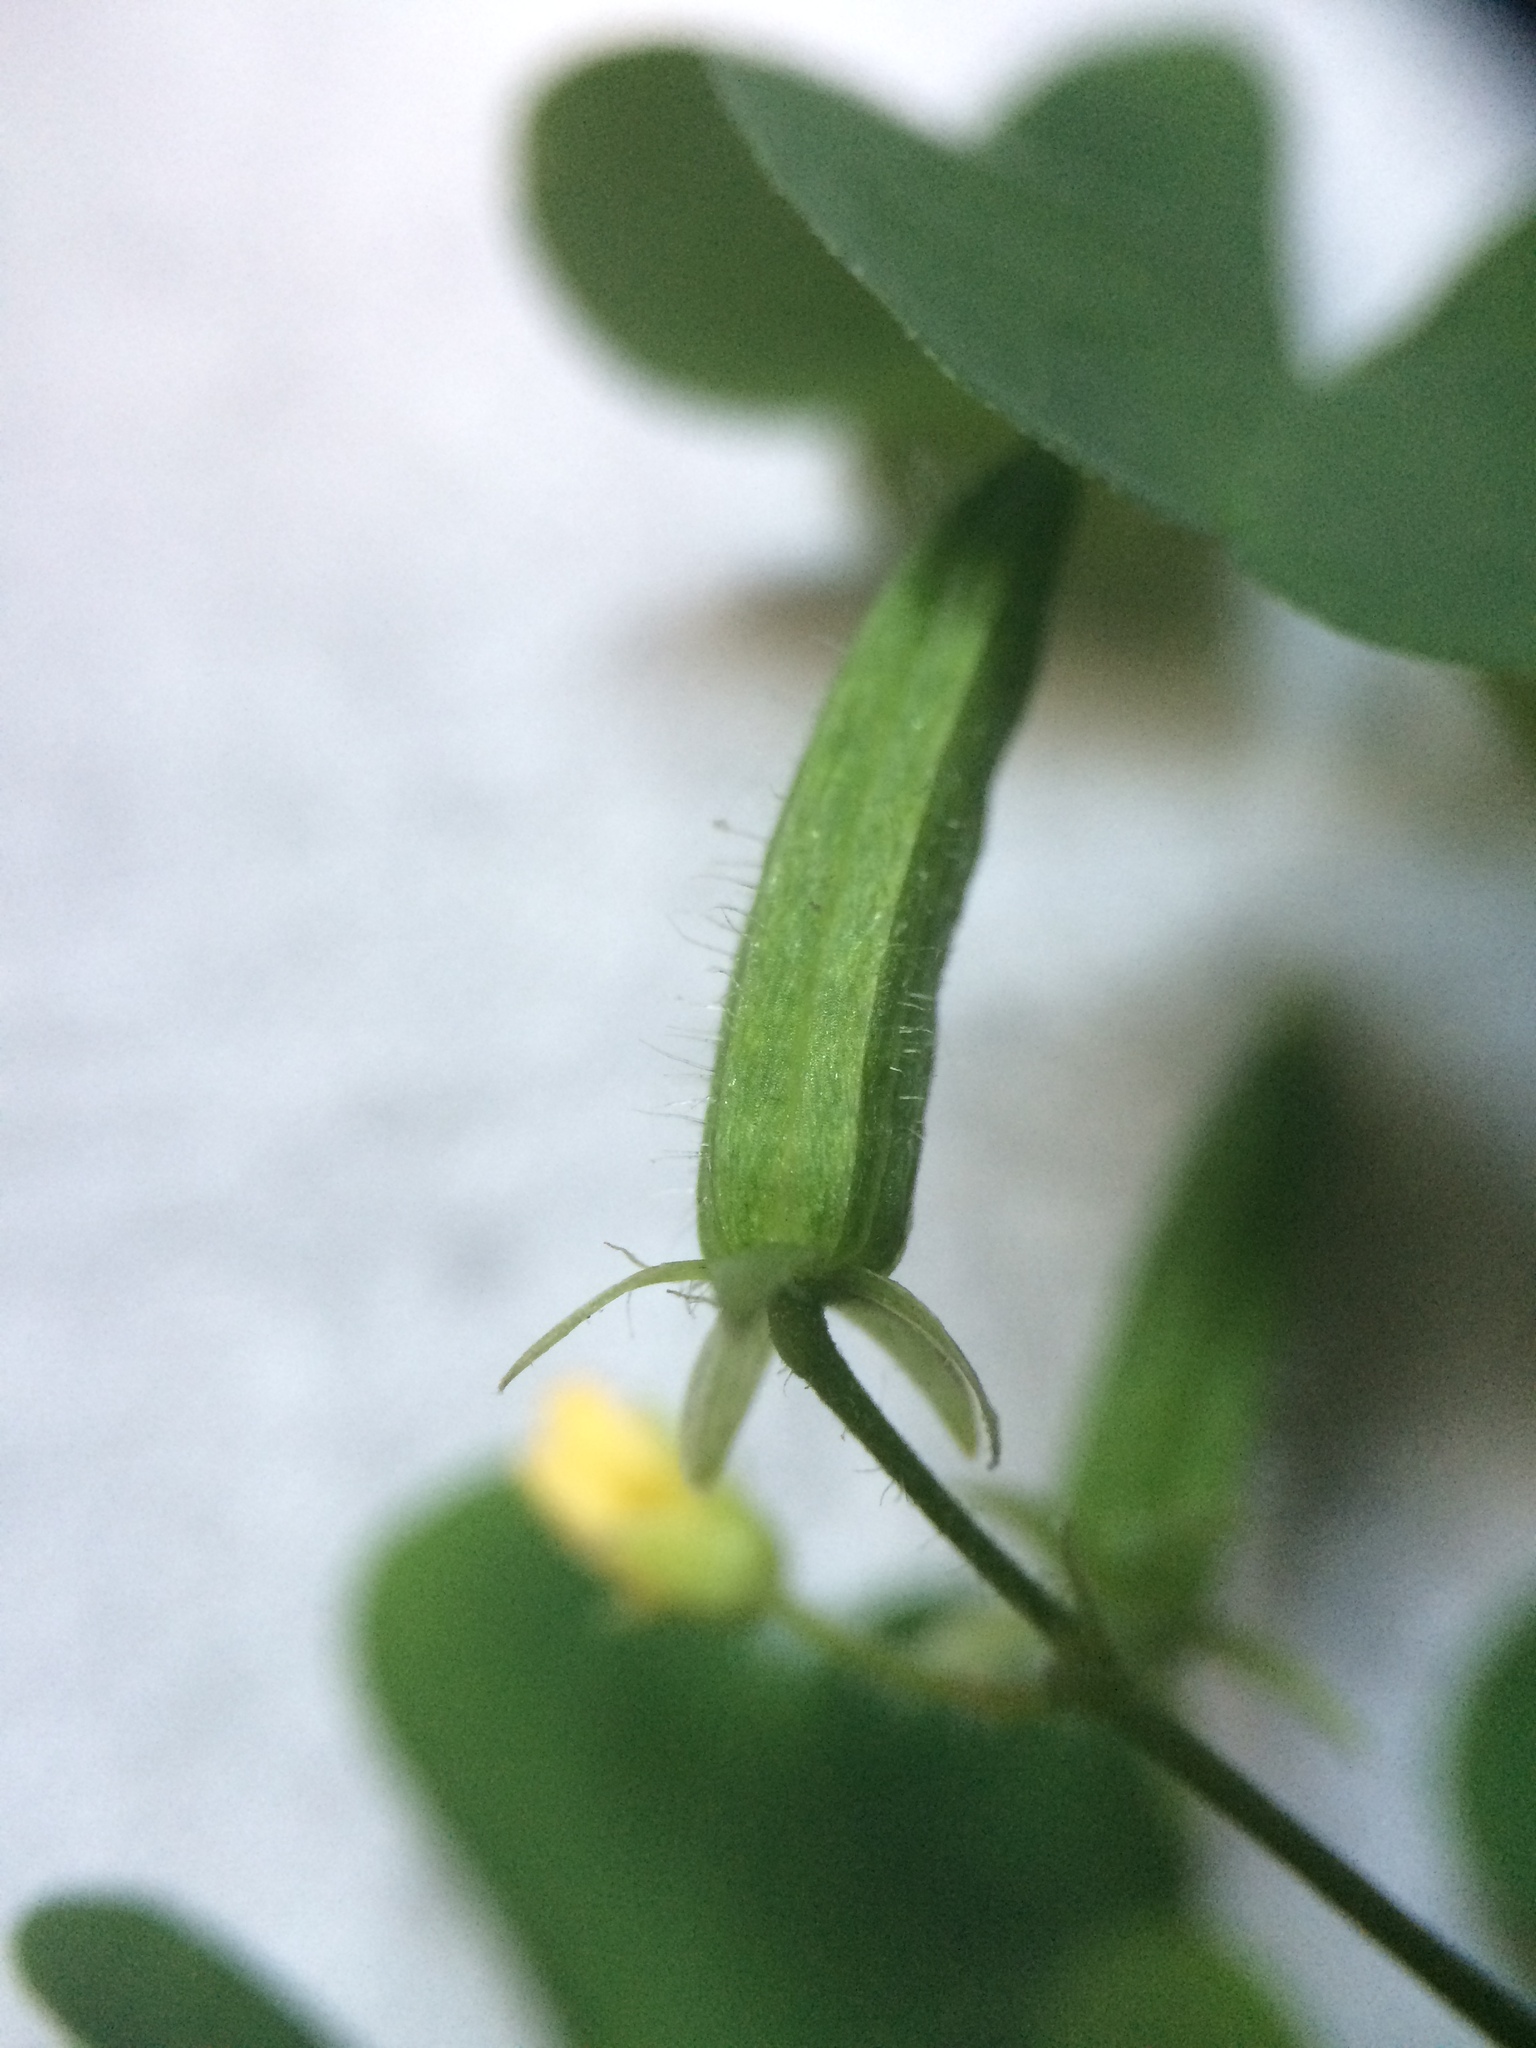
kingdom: Plantae
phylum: Tracheophyta
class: Magnoliopsida
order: Oxalidales
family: Oxalidaceae
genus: Oxalis
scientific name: Oxalis stricta
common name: Upright yellow-sorrel
